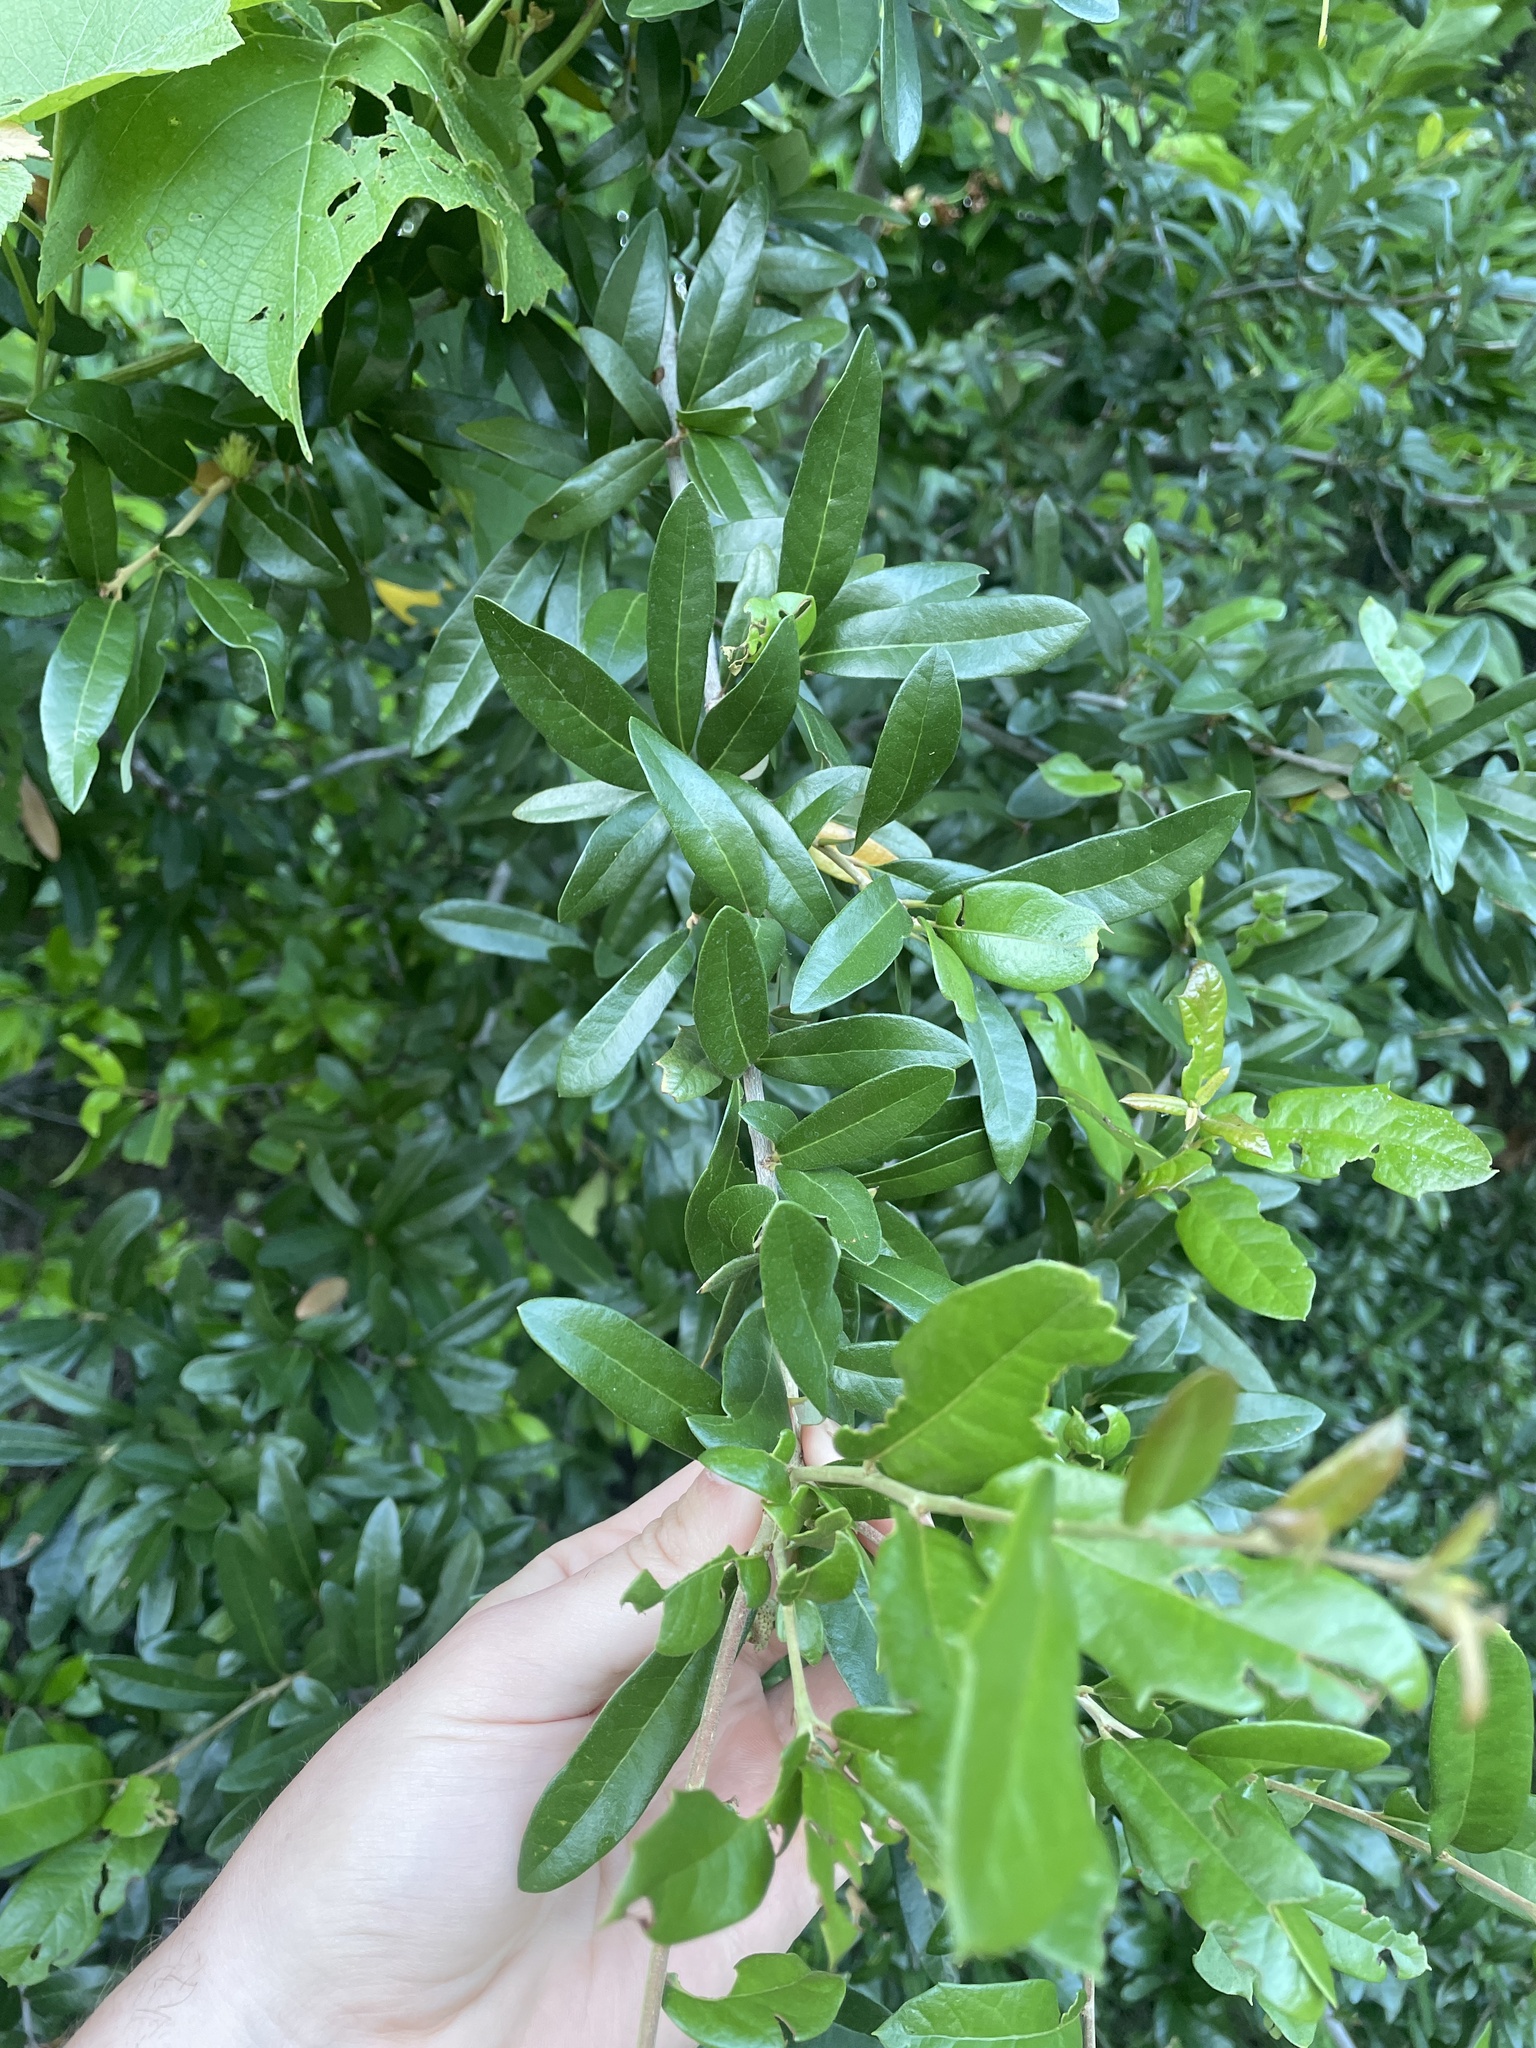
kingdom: Plantae
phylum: Tracheophyta
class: Magnoliopsida
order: Fagales
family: Fagaceae
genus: Quercus
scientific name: Quercus fusiformis
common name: Texas live oak
